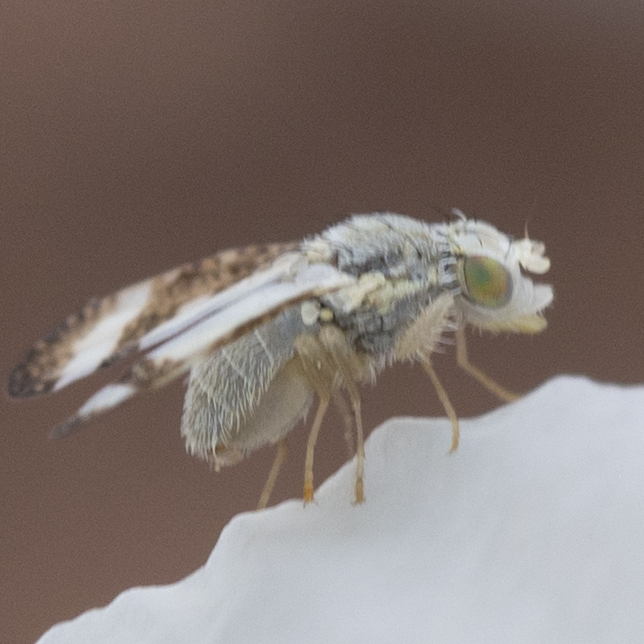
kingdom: Animalia
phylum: Arthropoda
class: Insecta
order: Diptera
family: Tephritidae
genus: Oxyna
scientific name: Oxyna palpalis
